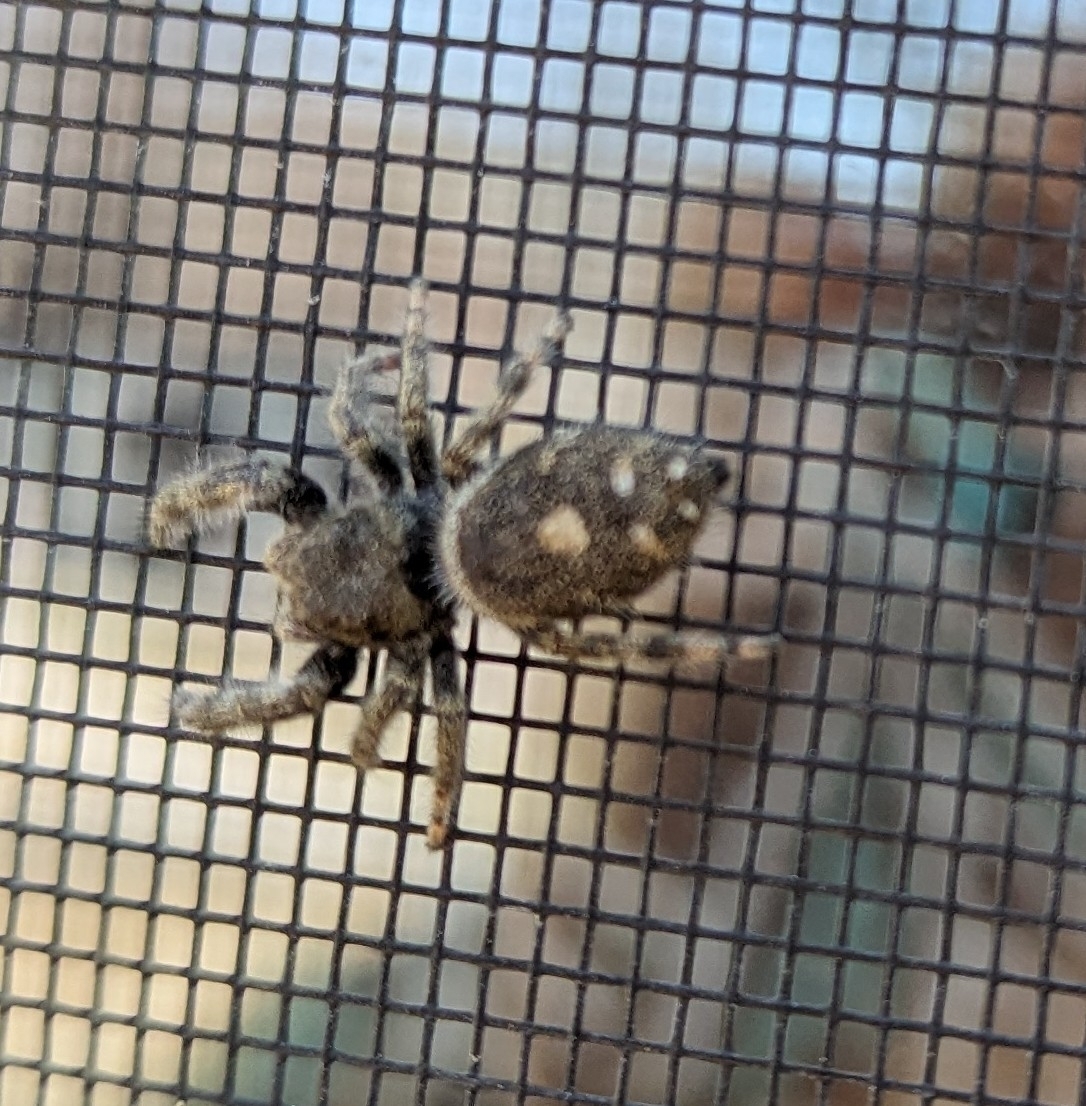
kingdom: Animalia
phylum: Arthropoda
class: Arachnida
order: Araneae
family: Salticidae
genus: Phidippus
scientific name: Phidippus audax
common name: Bold jumper
